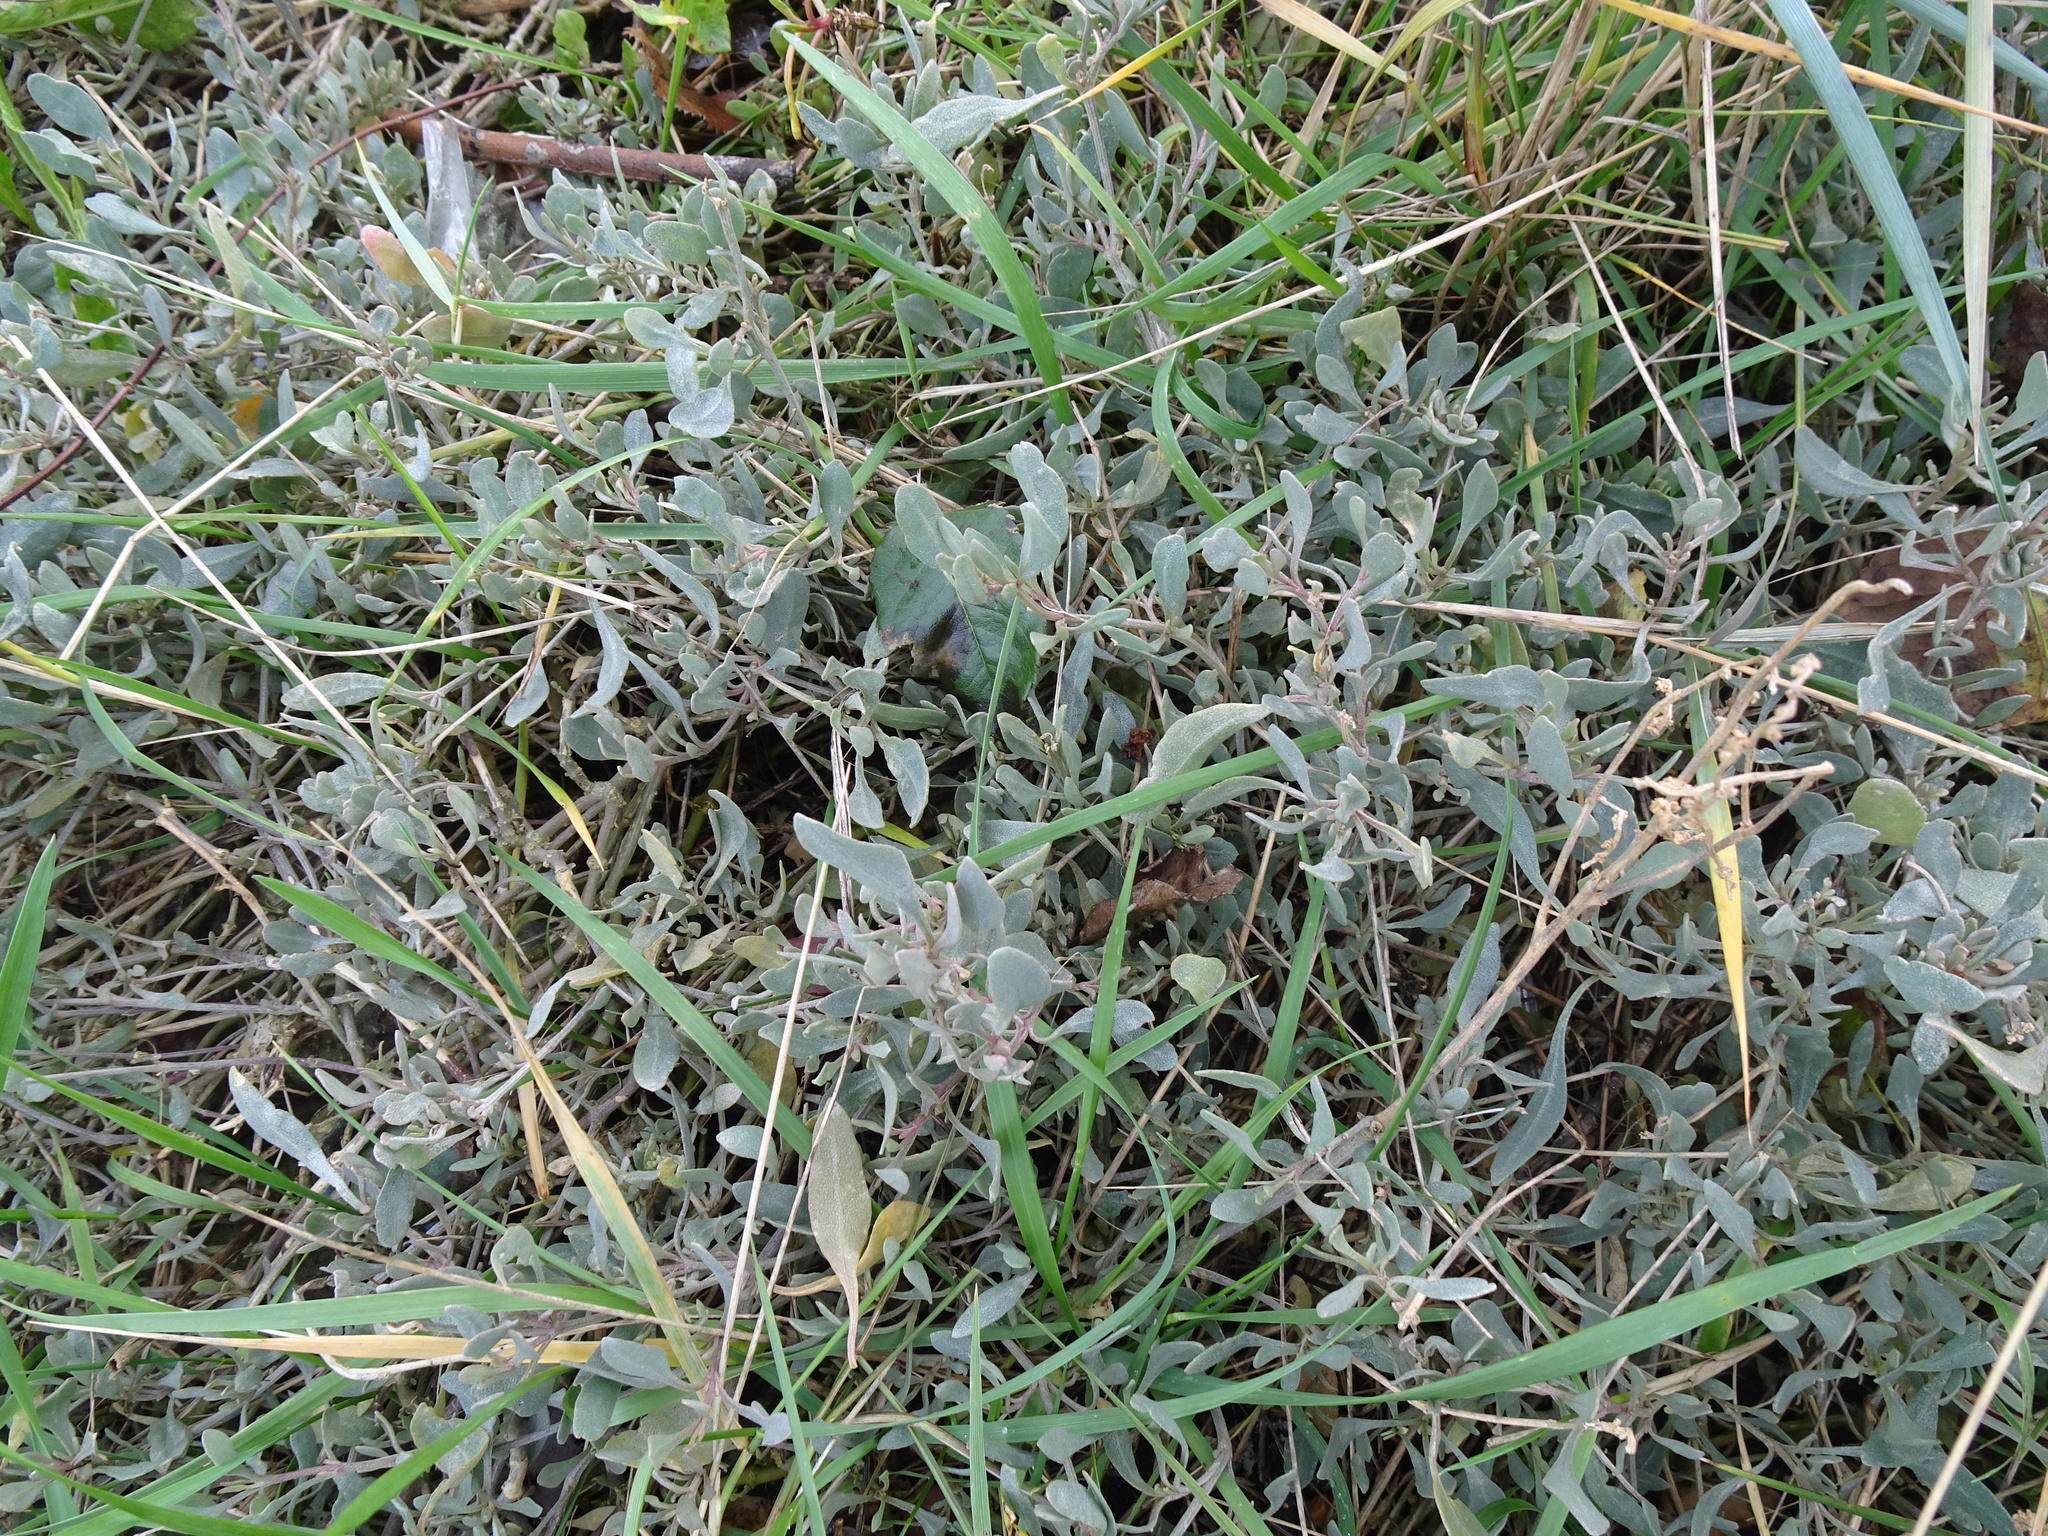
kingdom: Plantae
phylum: Tracheophyta
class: Magnoliopsida
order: Caryophyllales
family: Amaranthaceae
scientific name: Amaranthaceae
